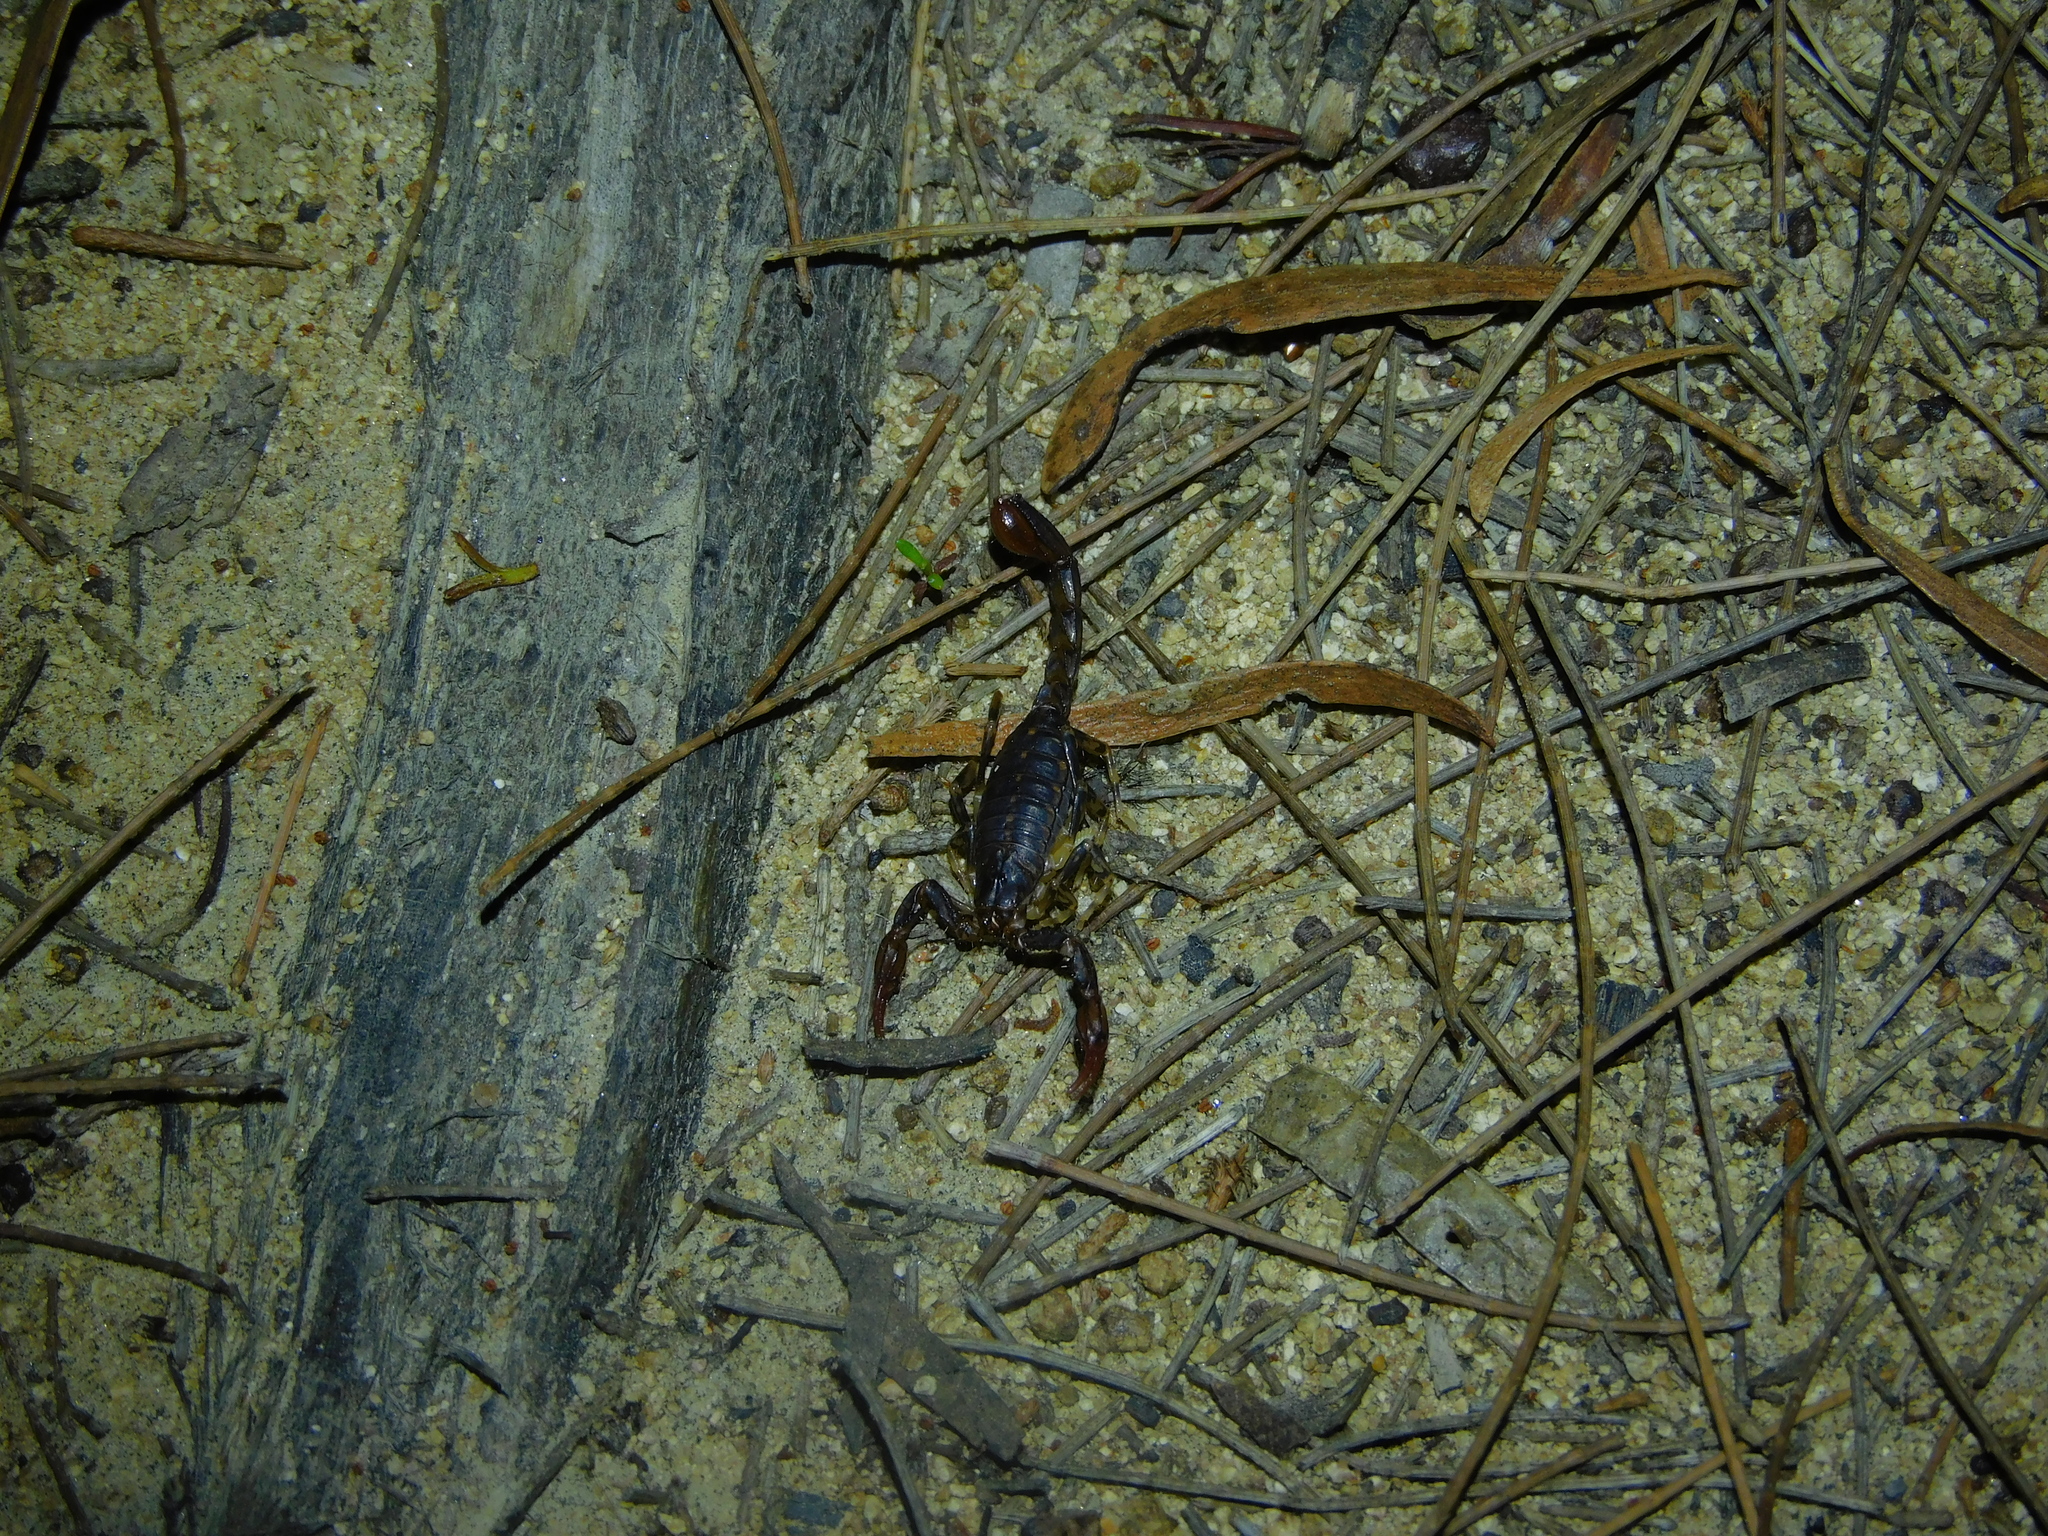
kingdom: Animalia
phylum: Arthropoda
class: Arachnida
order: Scorpiones
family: Bothriuridae
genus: Cercophonius
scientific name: Cercophonius squama
